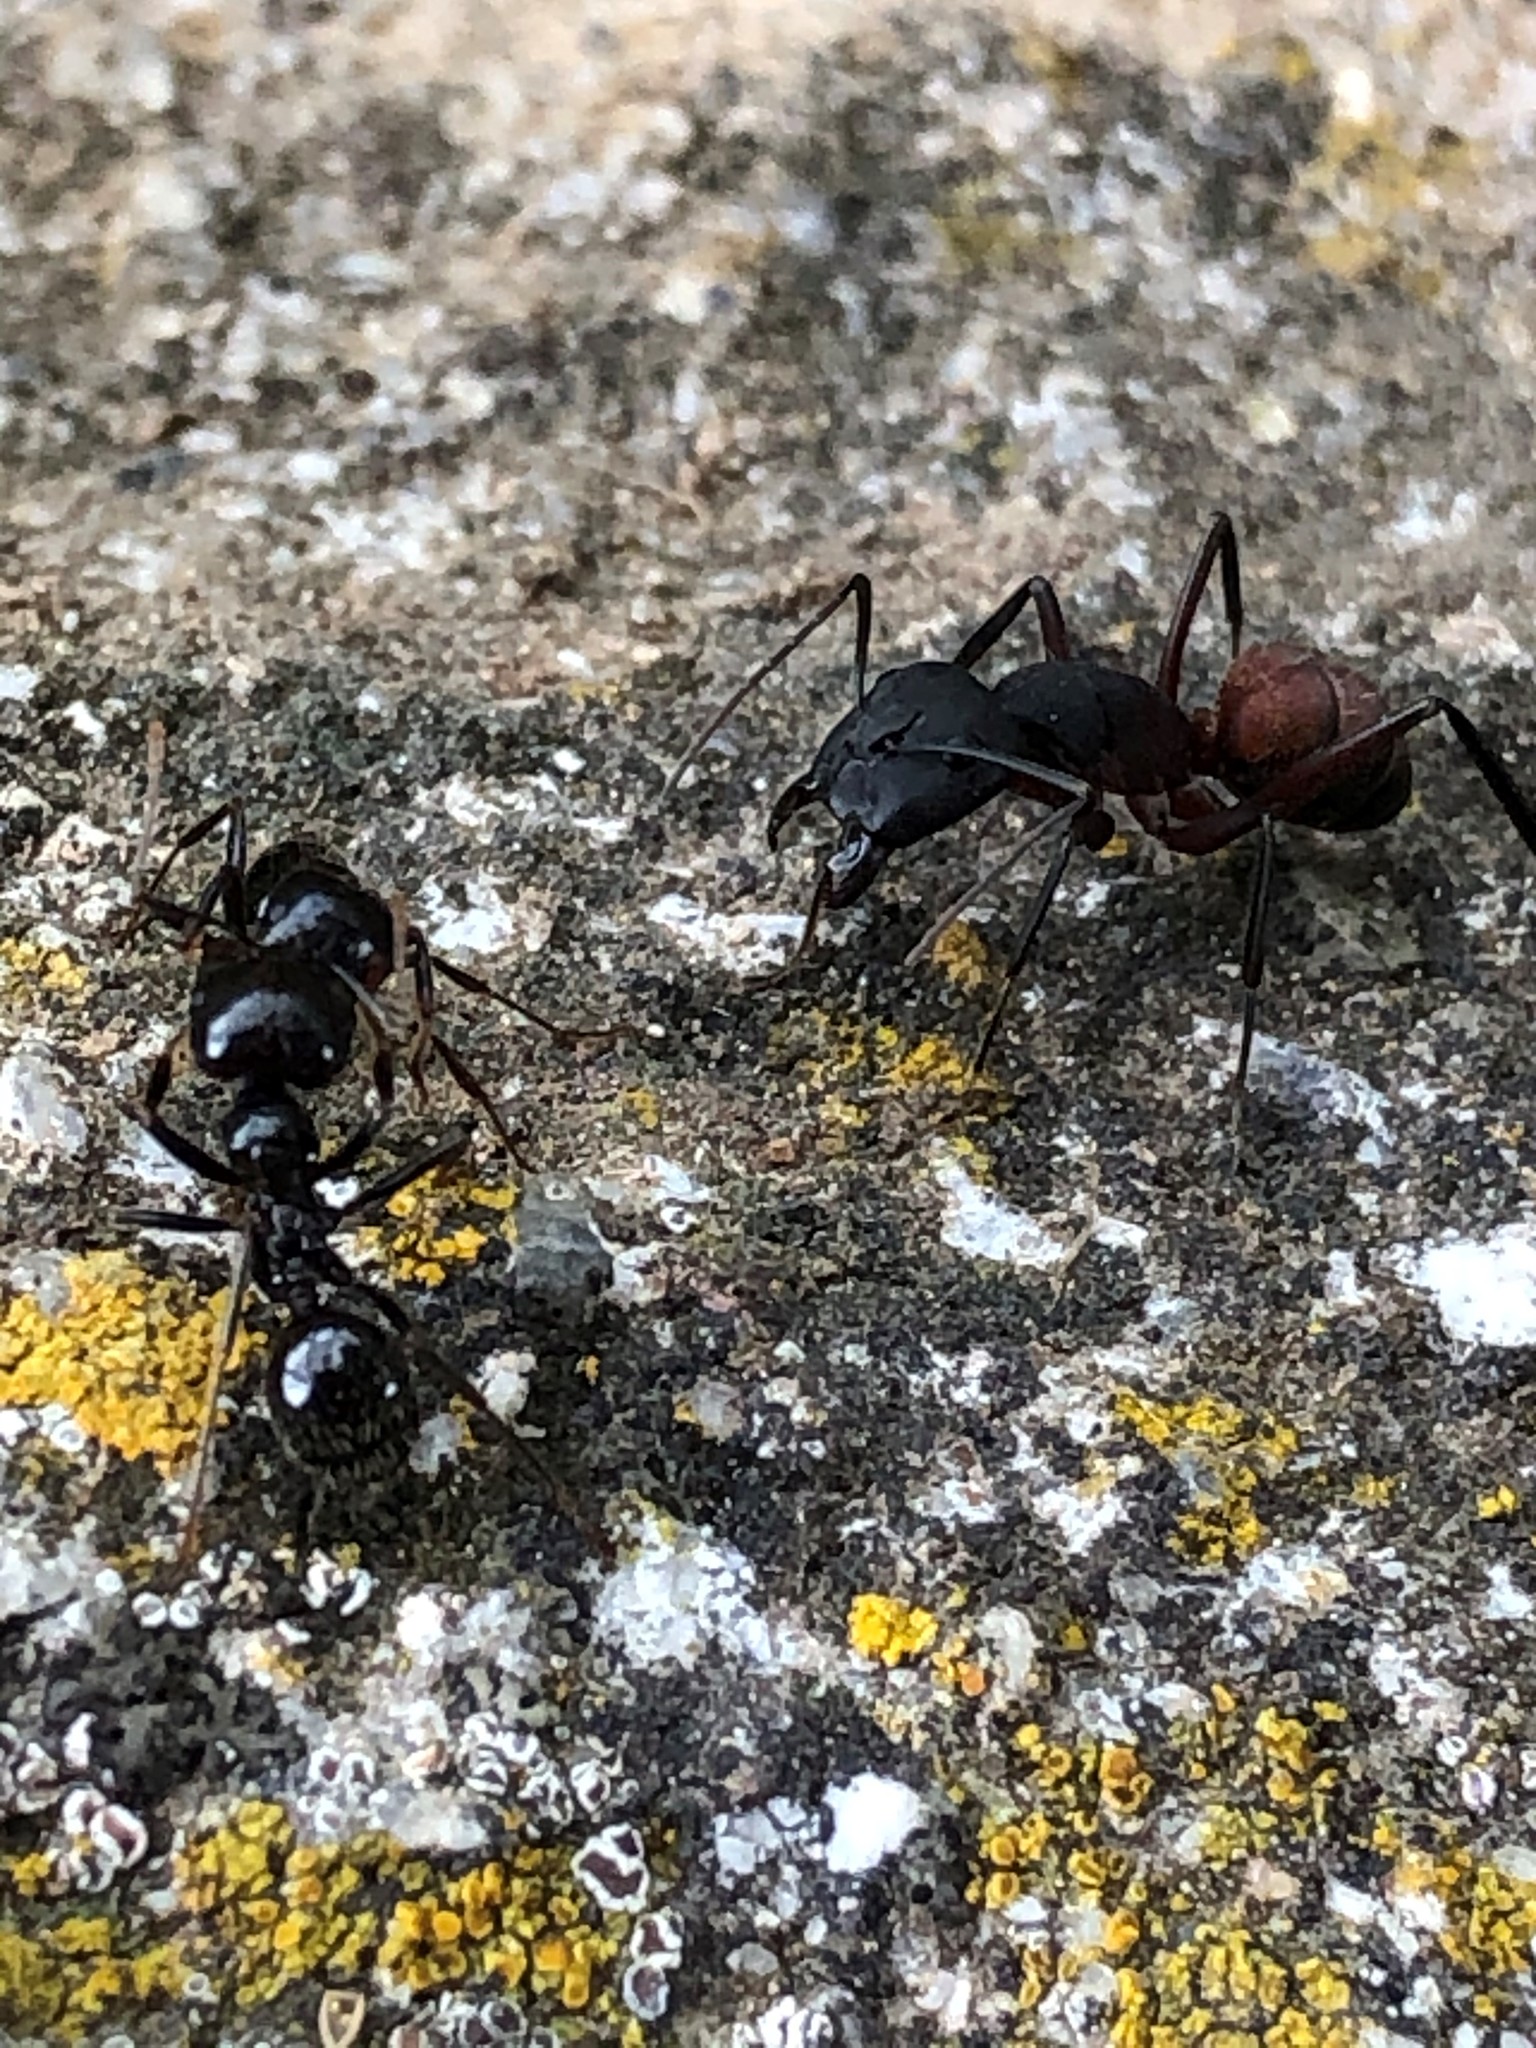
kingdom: Animalia
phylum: Arthropoda
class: Insecta
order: Hymenoptera
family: Formicidae
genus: Camponotus
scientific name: Camponotus cruentatus
